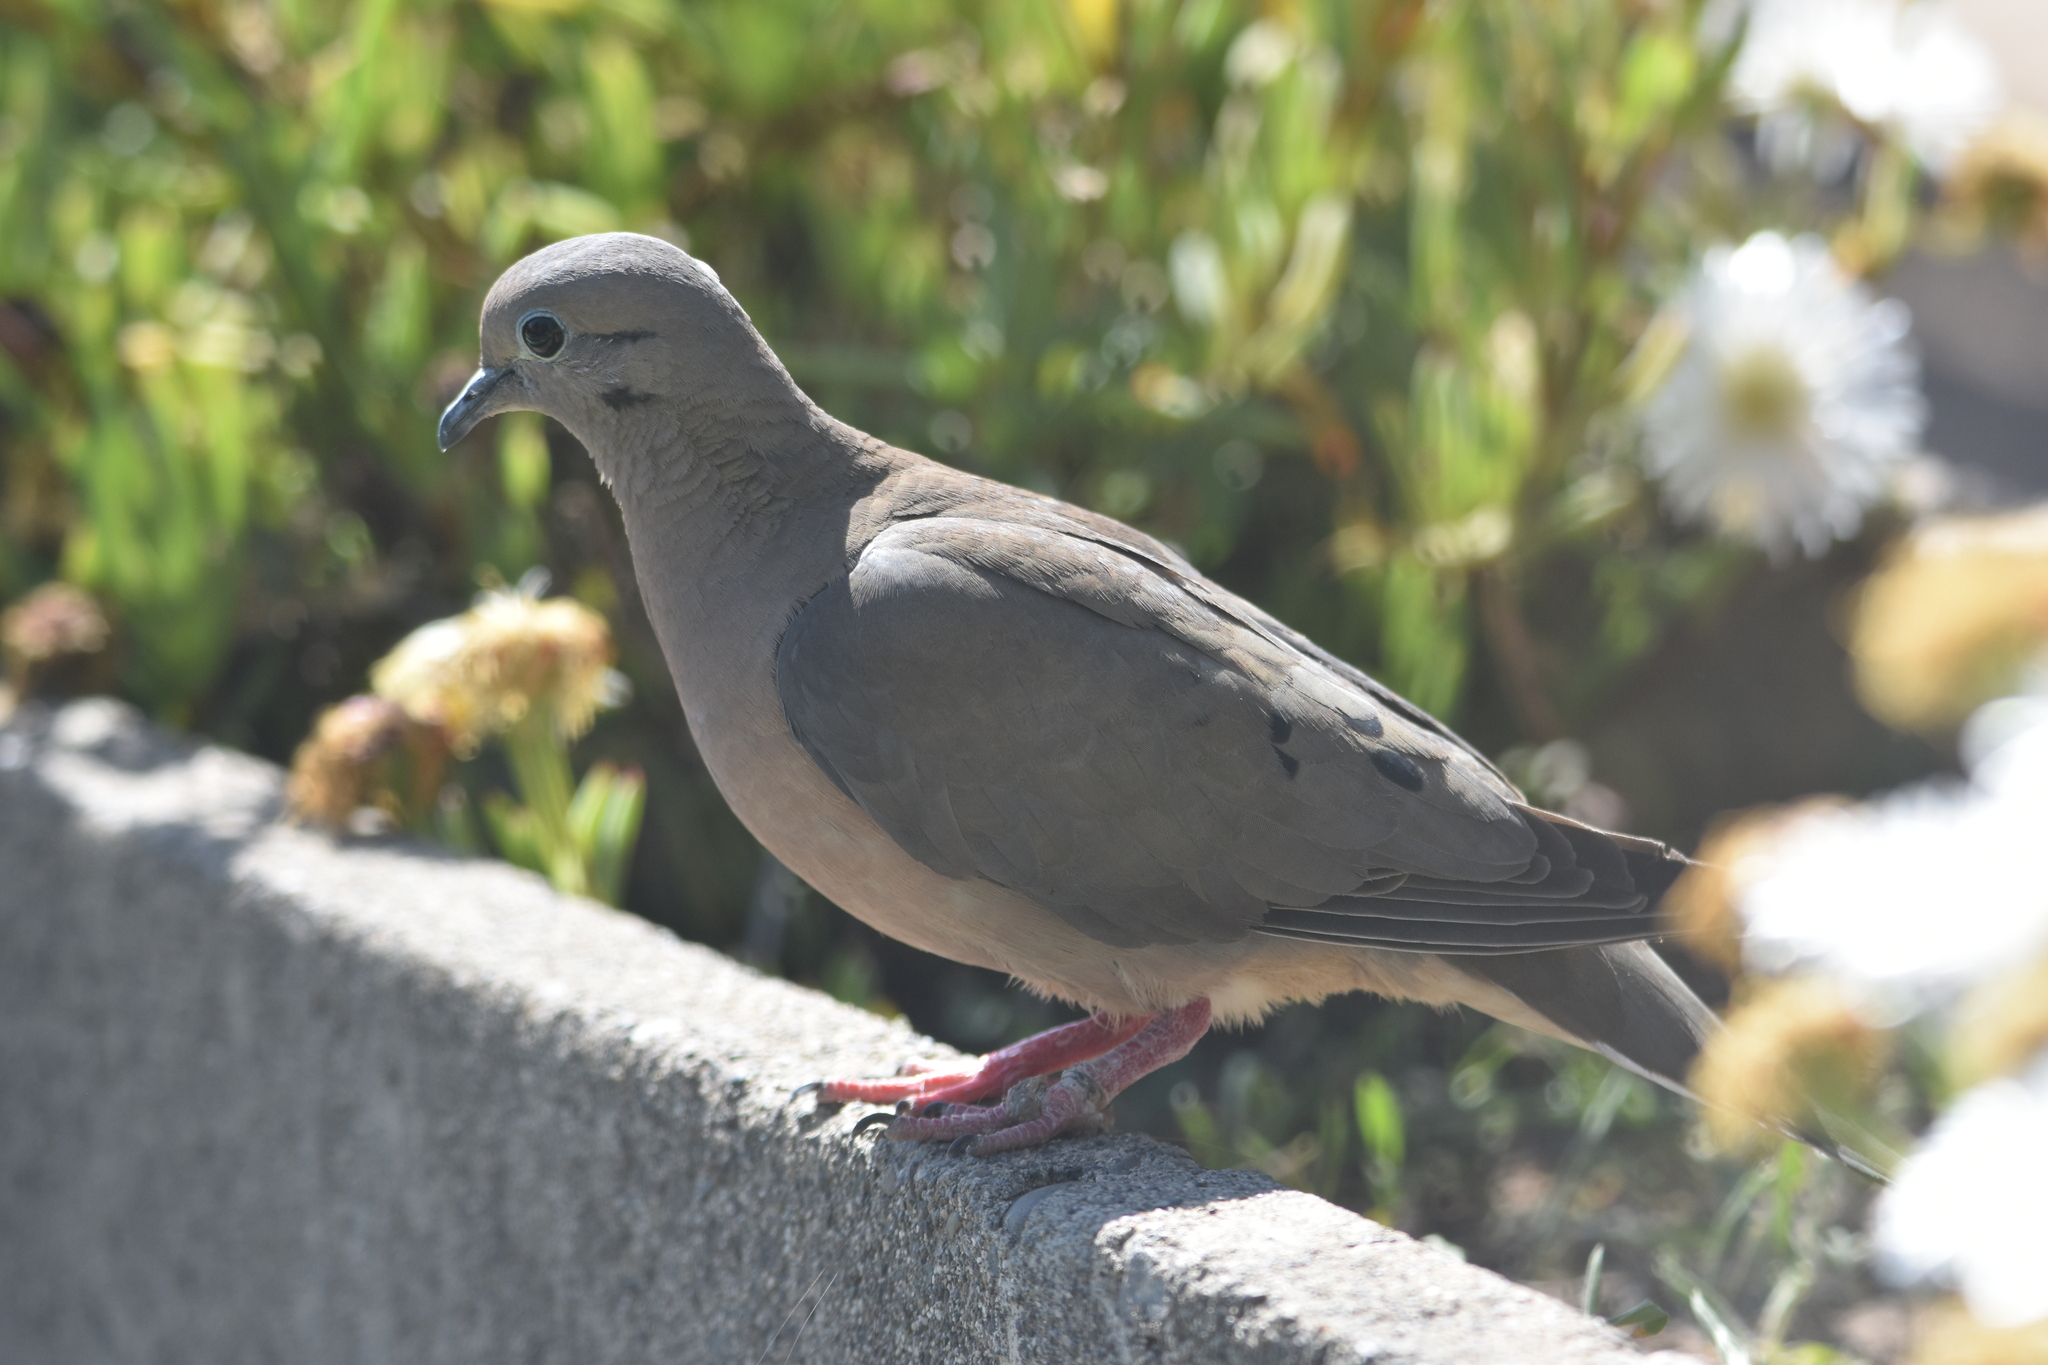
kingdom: Animalia
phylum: Chordata
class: Aves
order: Columbiformes
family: Columbidae
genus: Zenaida
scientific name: Zenaida auriculata
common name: Eared dove
